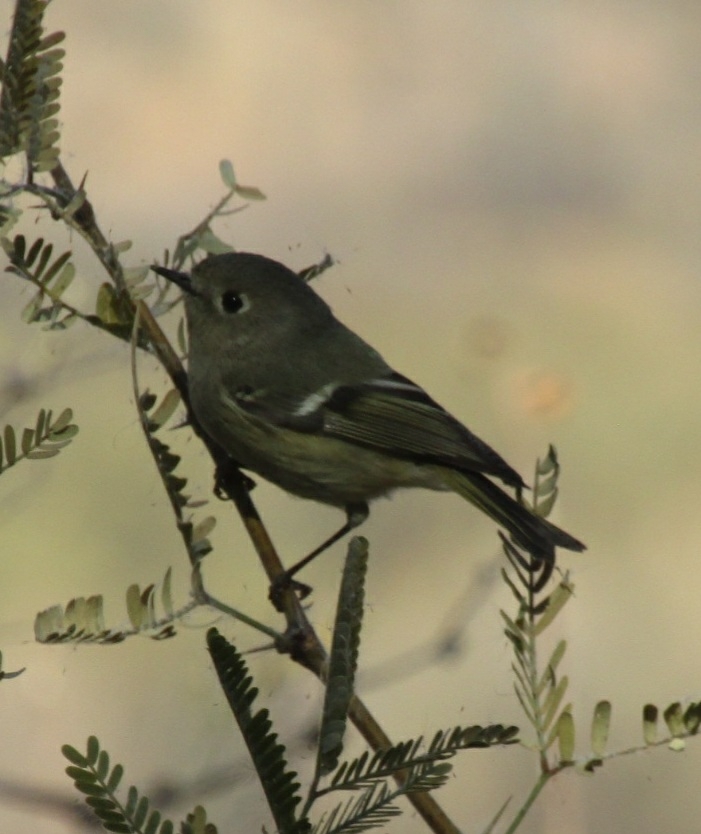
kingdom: Animalia
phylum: Chordata
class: Aves
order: Passeriformes
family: Regulidae
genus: Regulus
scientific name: Regulus calendula
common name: Ruby-crowned kinglet
